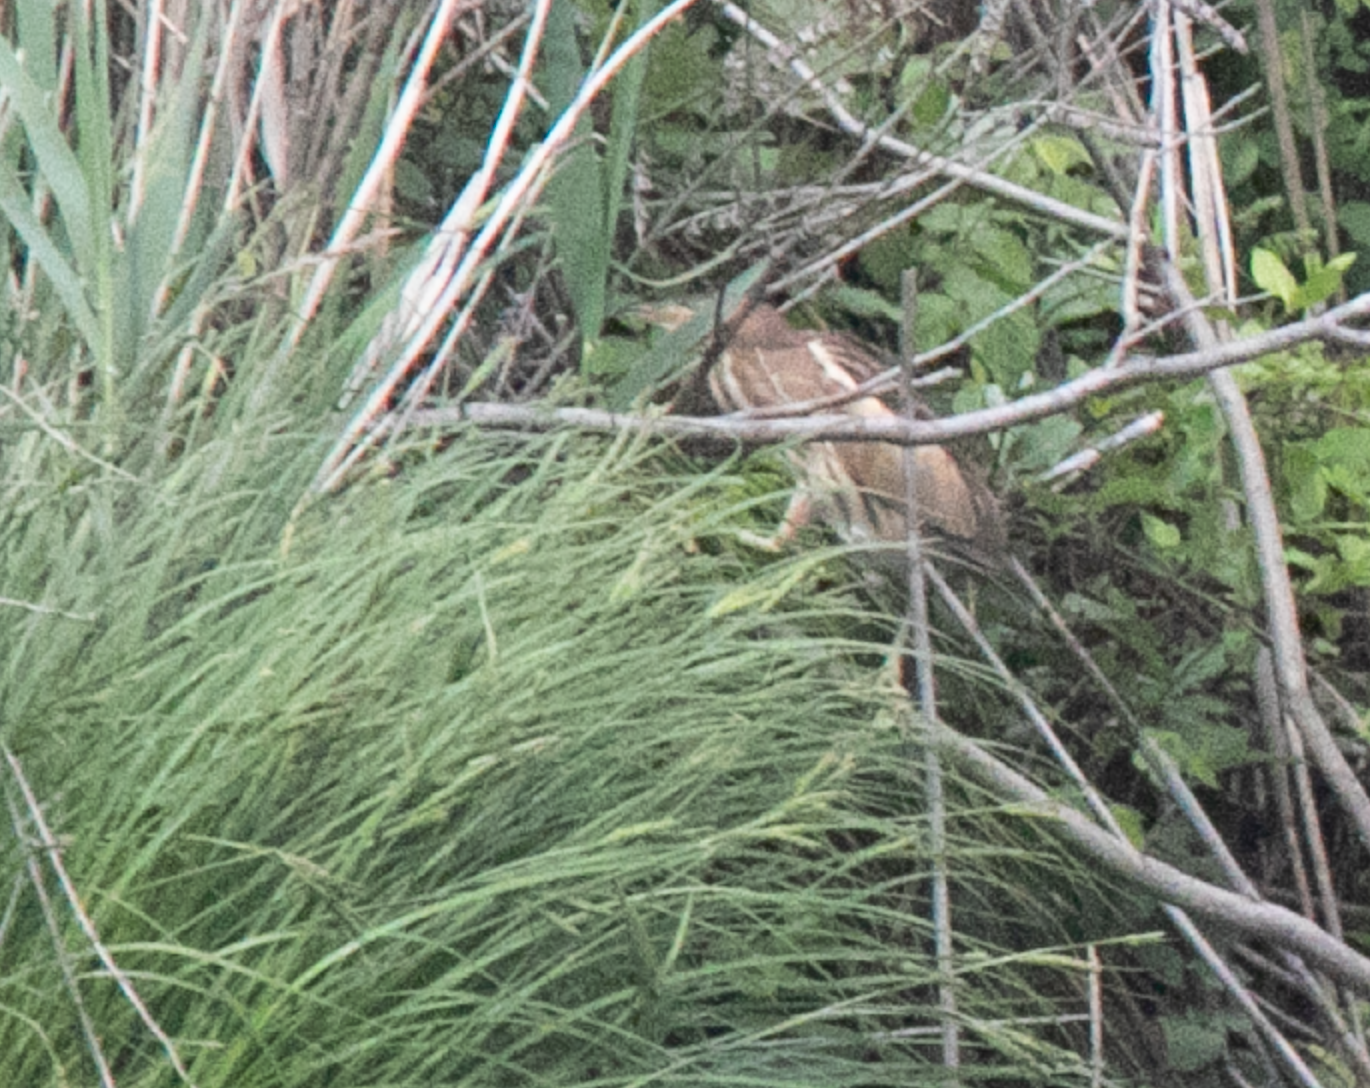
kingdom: Animalia
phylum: Chordata
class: Aves
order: Pelecaniformes
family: Ardeidae
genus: Ixobrychus
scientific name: Ixobrychus minutus
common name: Little bittern
